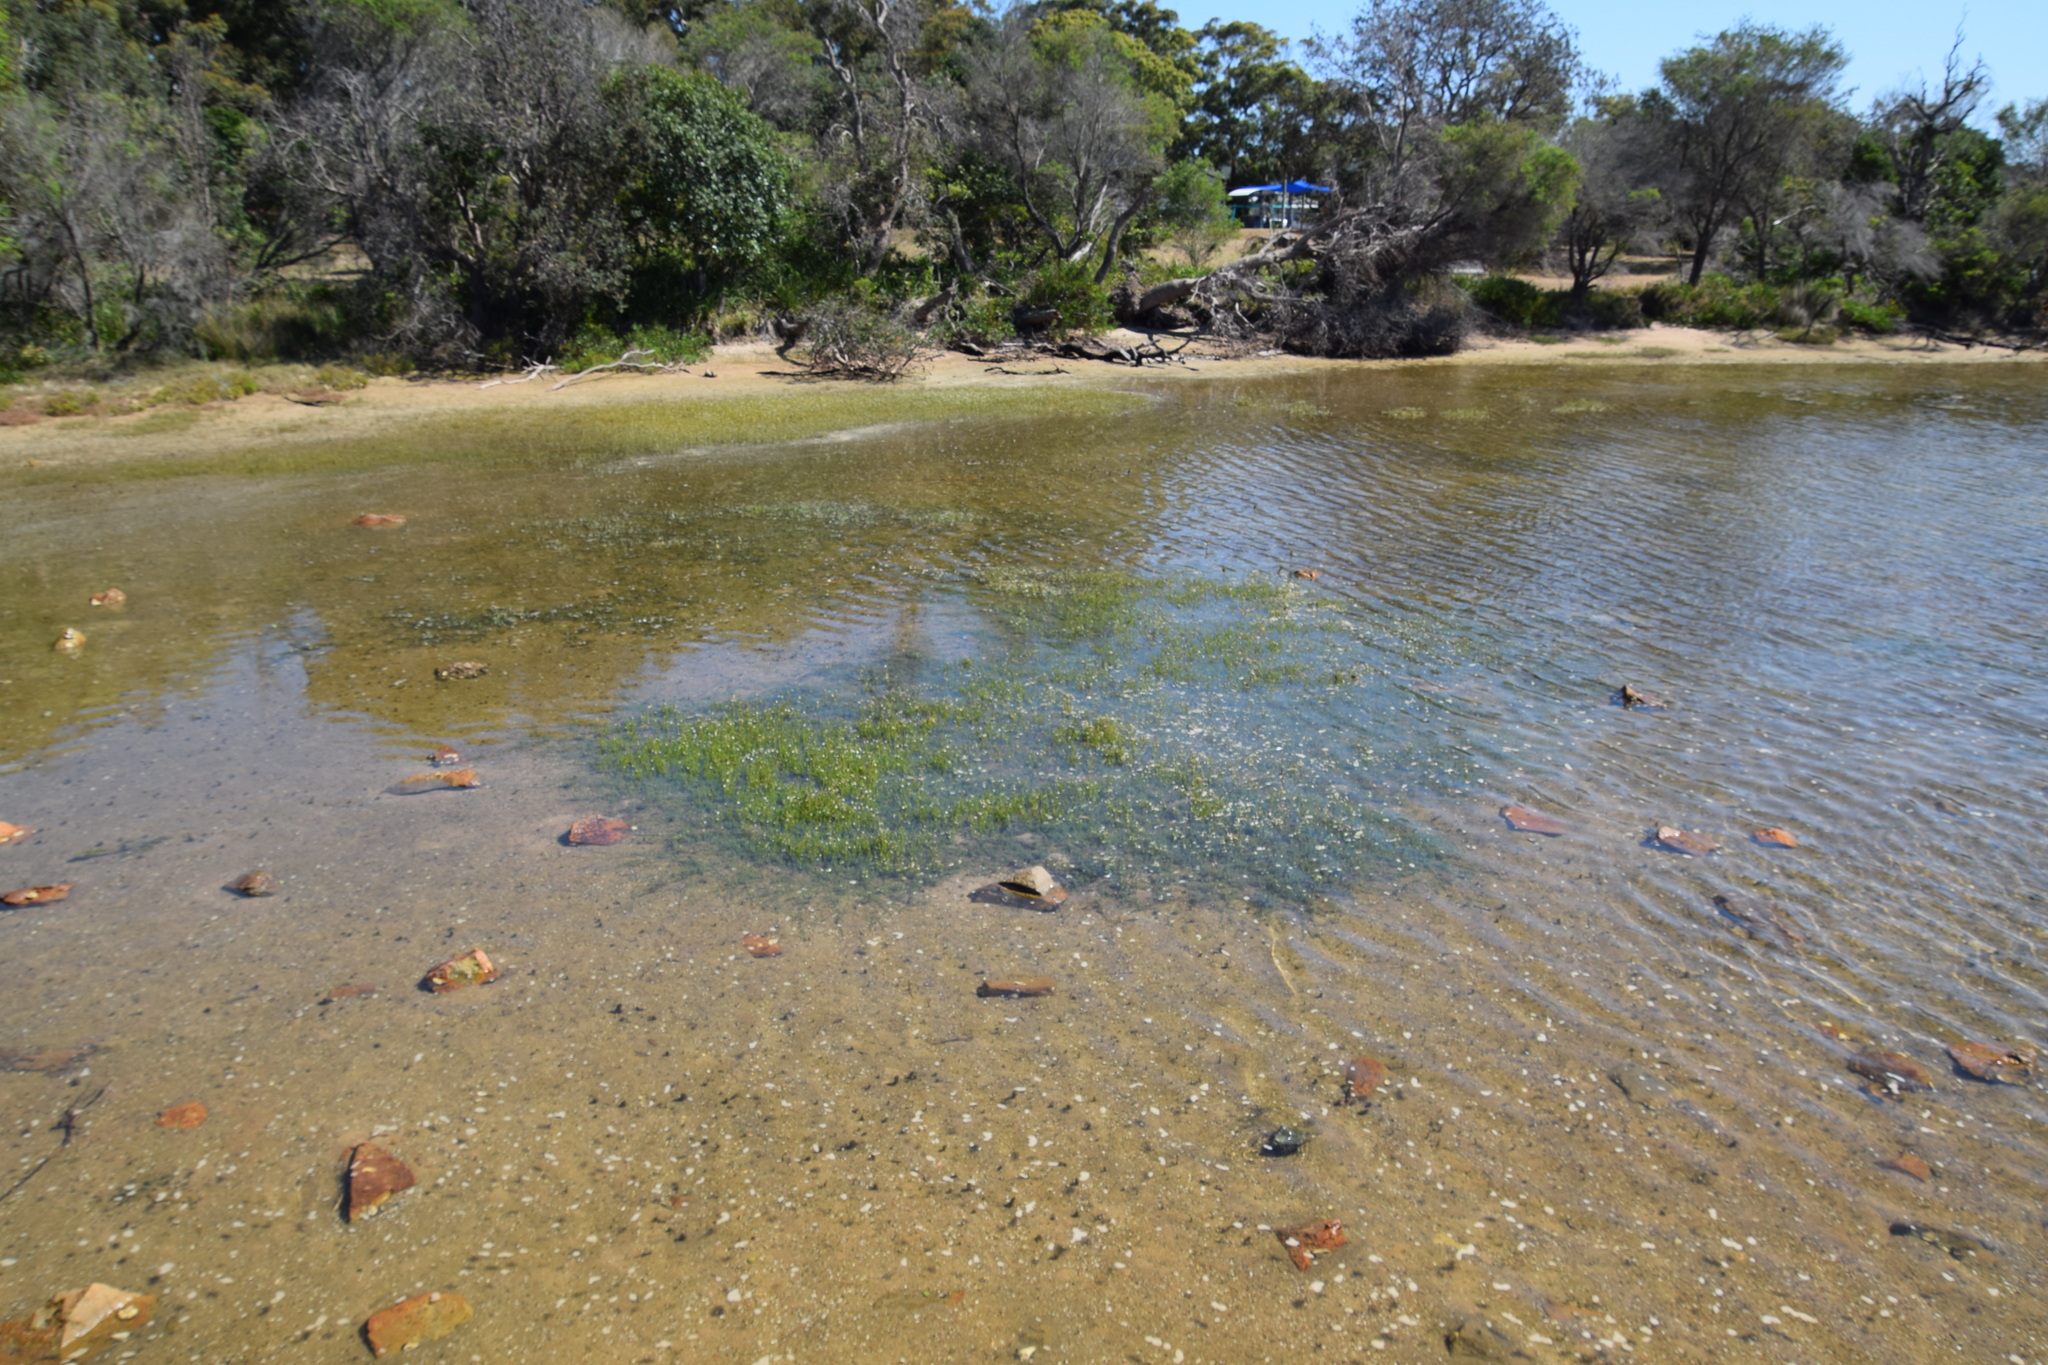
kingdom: Plantae
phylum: Tracheophyta
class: Magnoliopsida
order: Ericales
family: Primulaceae
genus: Samolus
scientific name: Samolus repens
